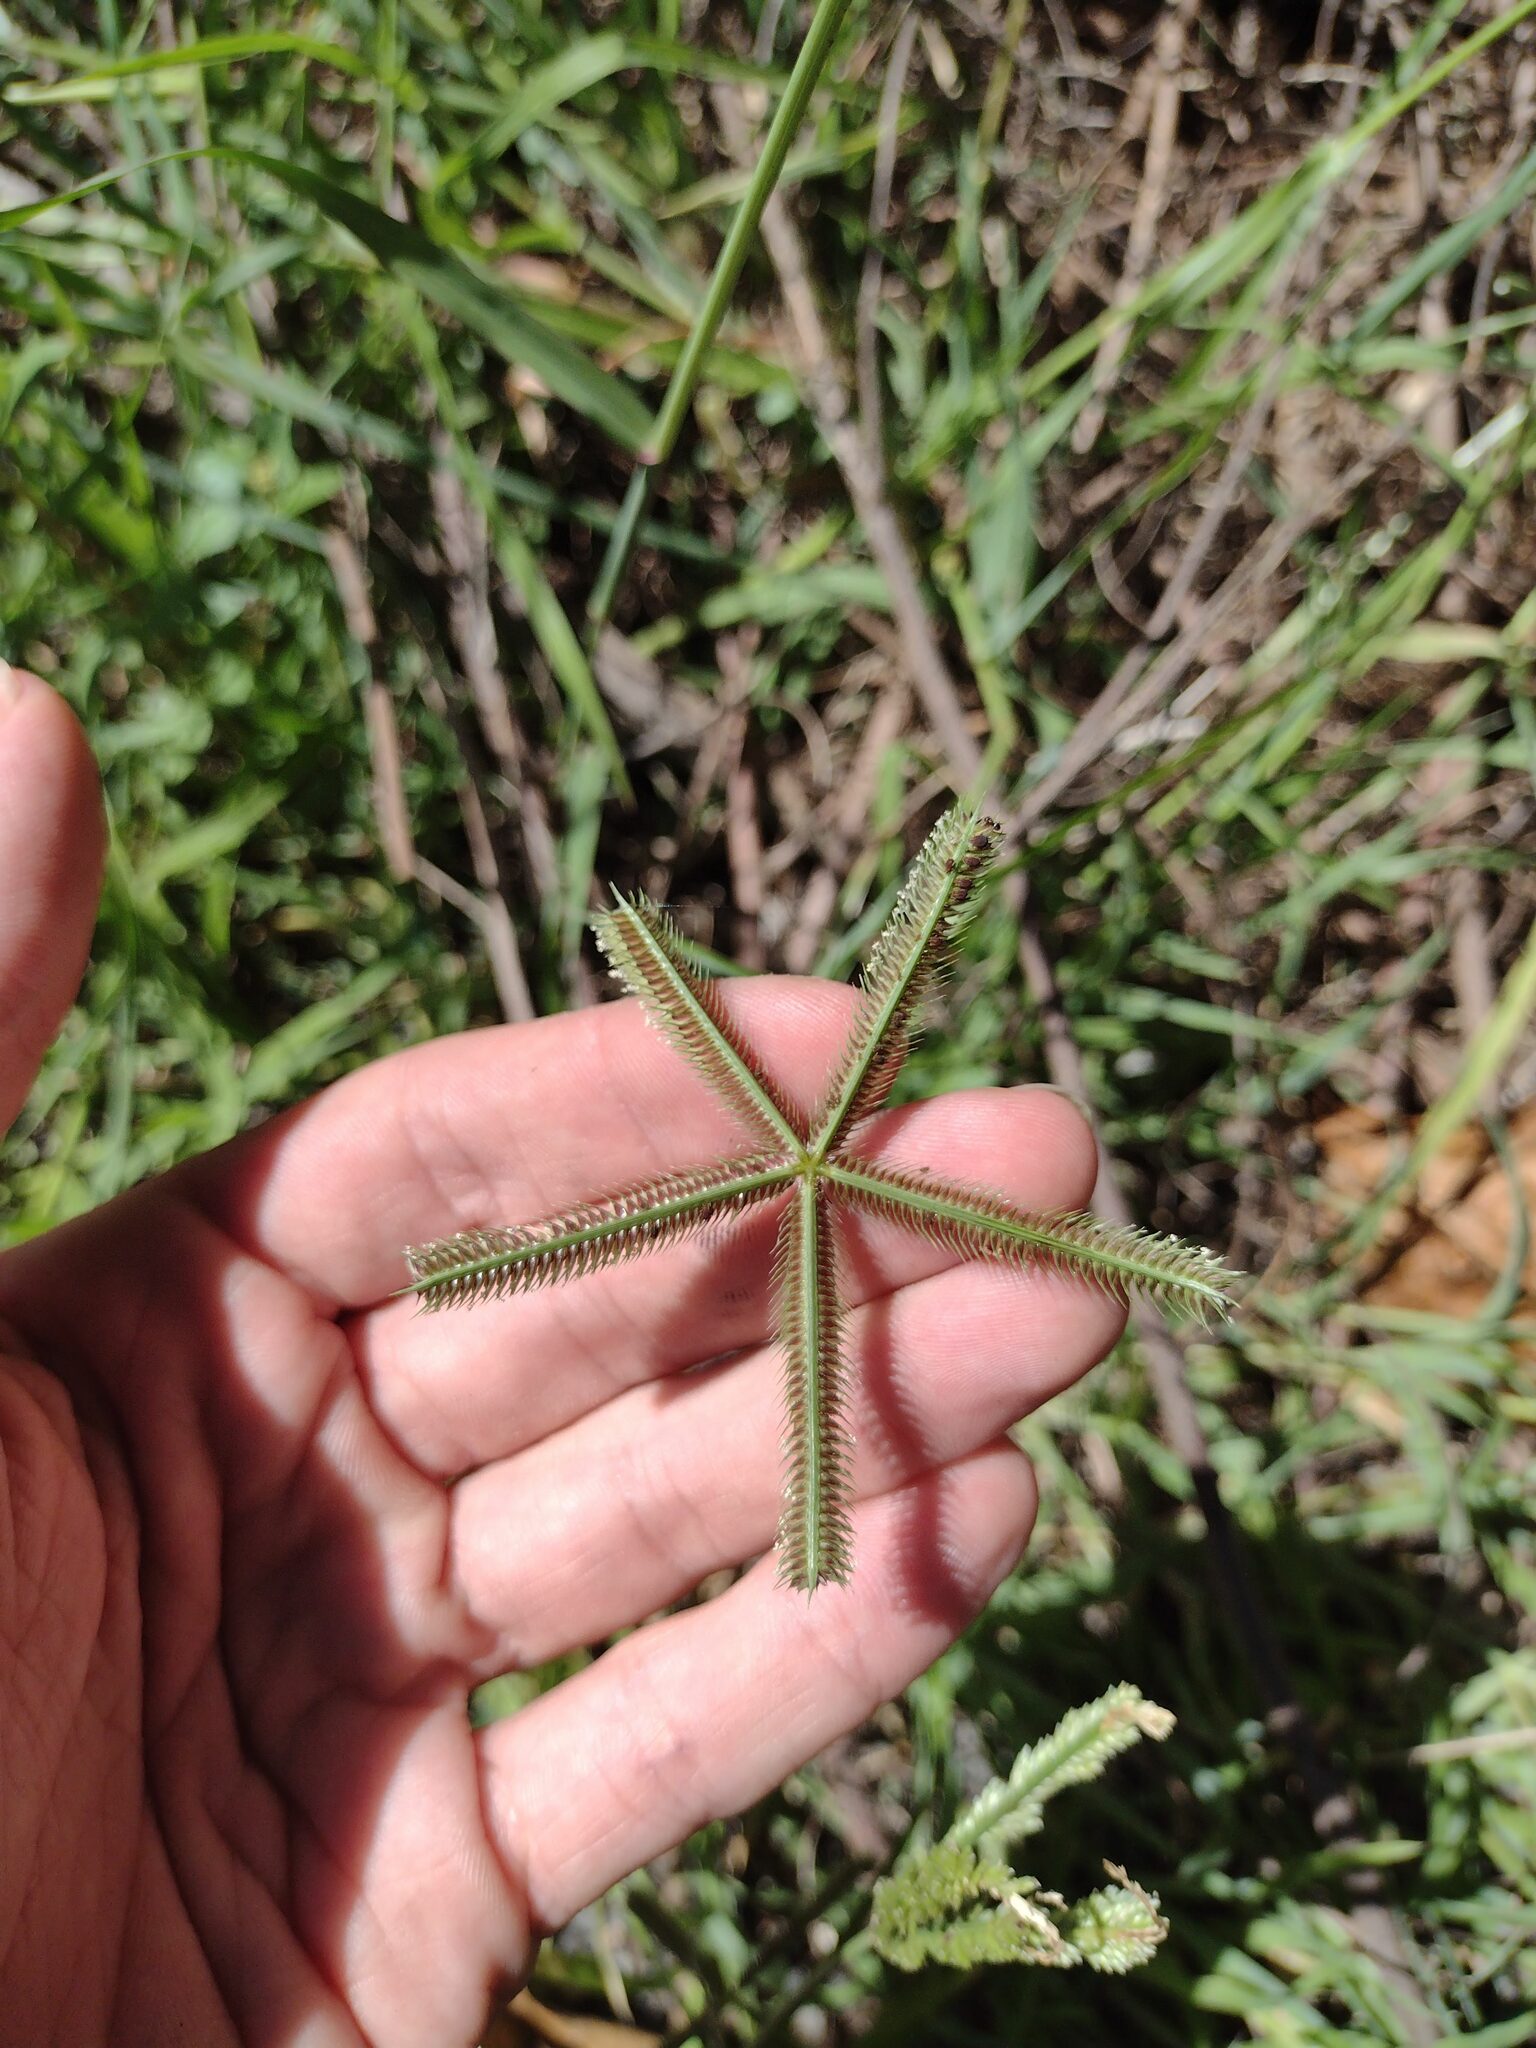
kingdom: Plantae
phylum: Tracheophyta
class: Liliopsida
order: Poales
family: Poaceae
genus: Dactyloctenium
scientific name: Dactyloctenium aegyptium
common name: Egyptian grass
